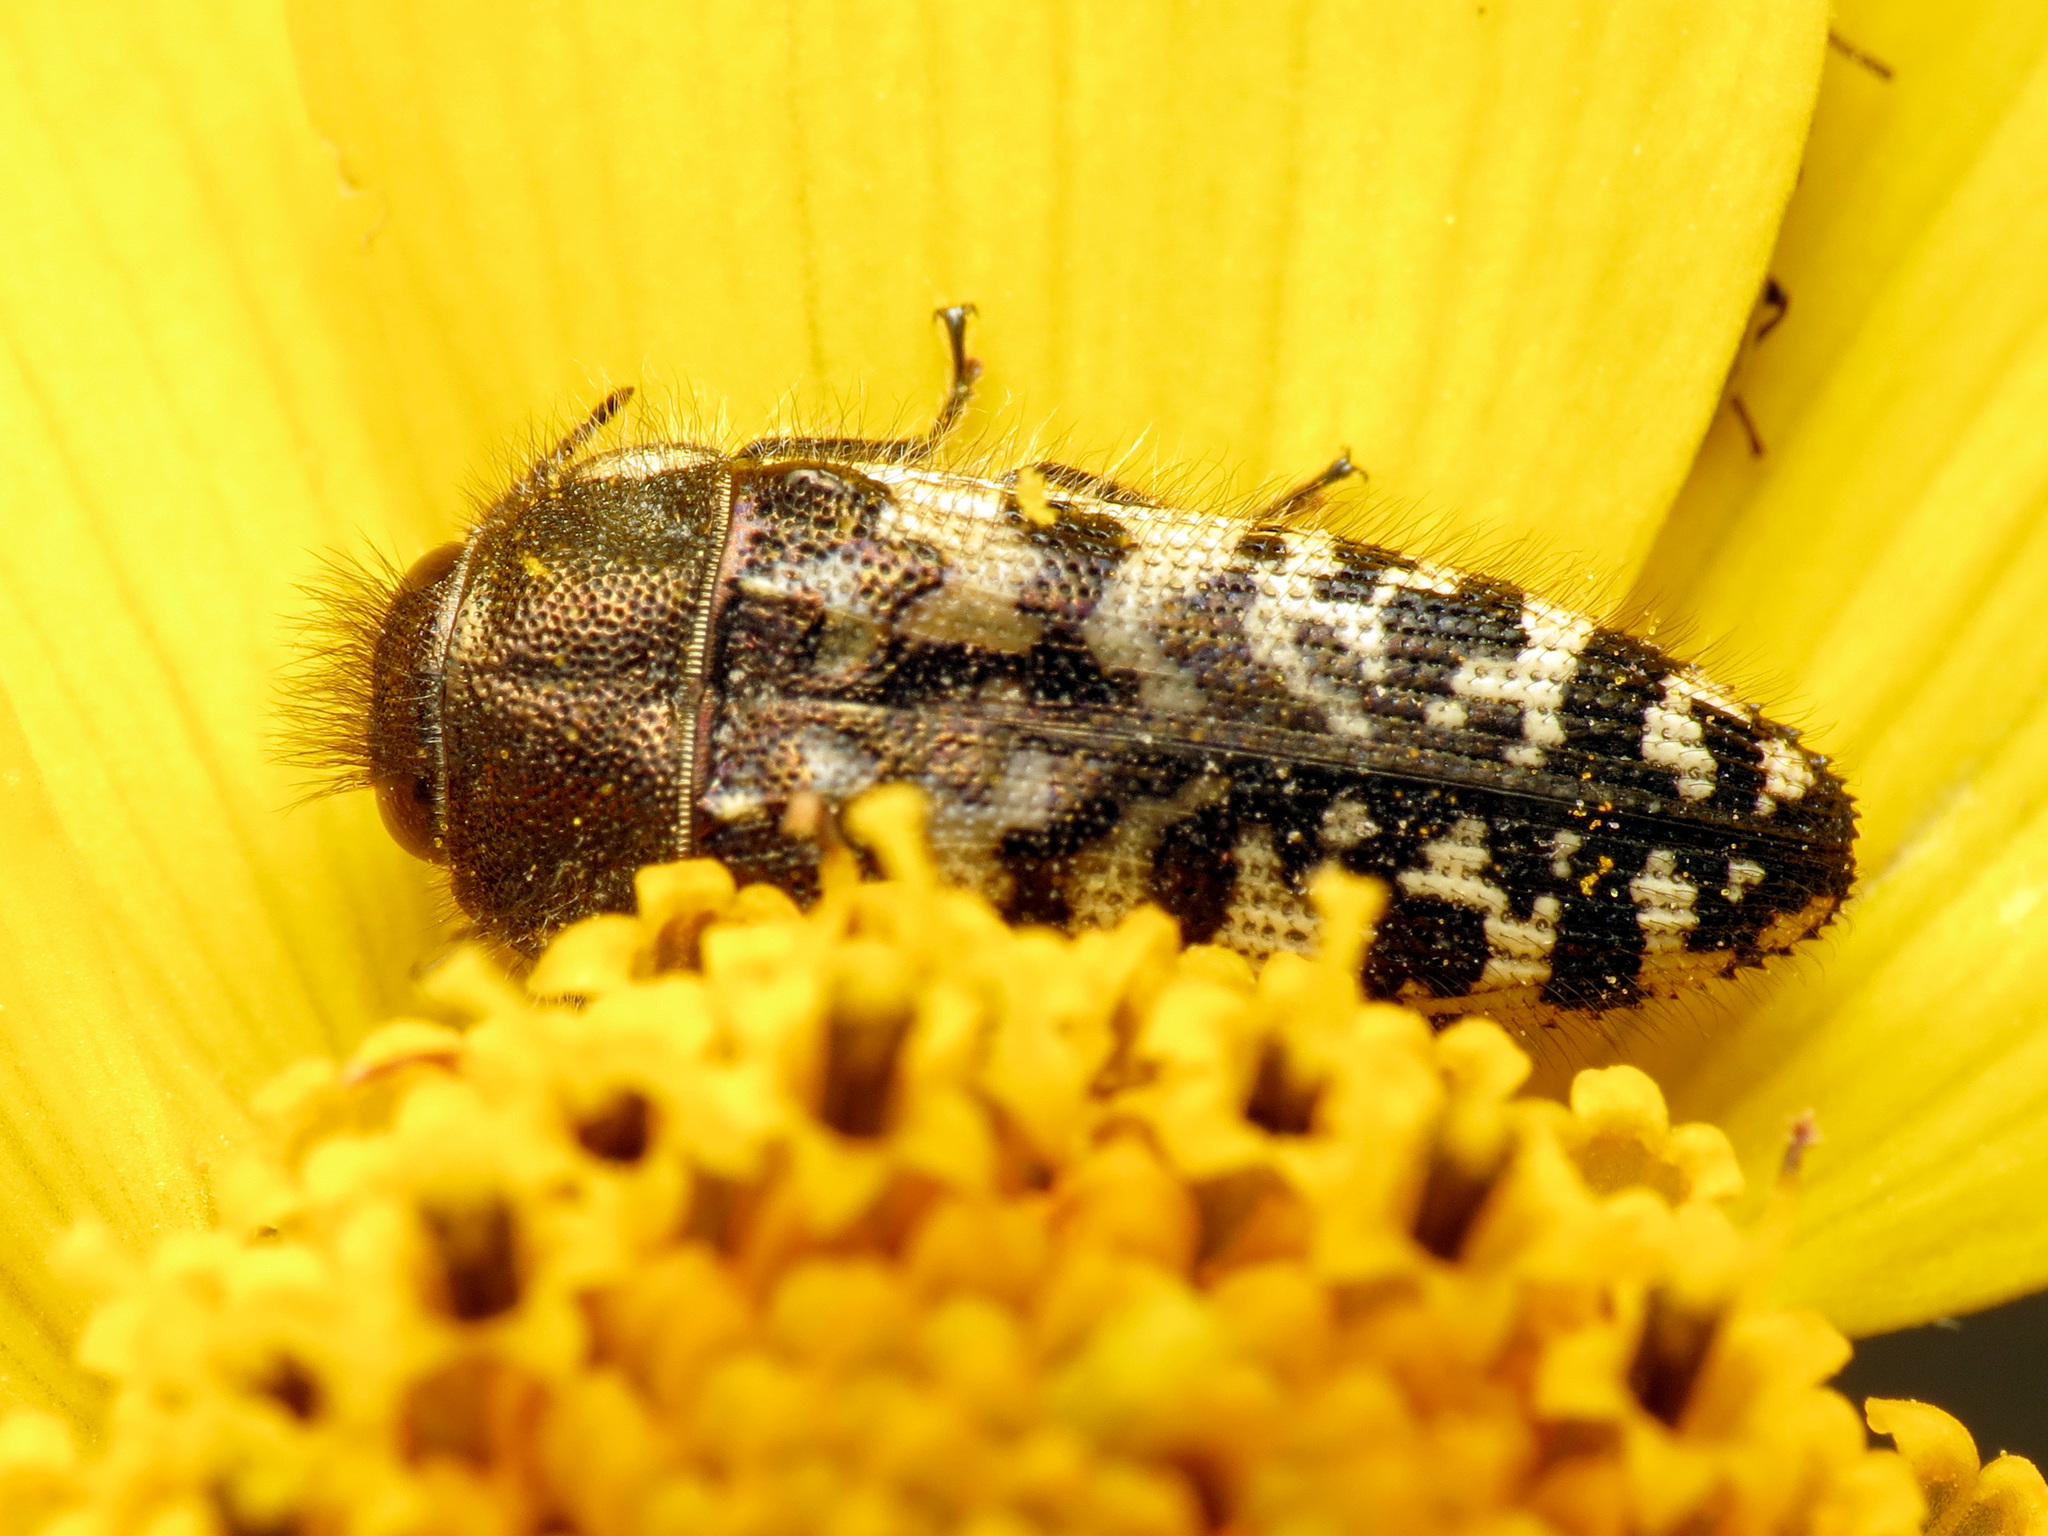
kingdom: Animalia
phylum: Arthropoda
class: Insecta
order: Coleoptera
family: Buprestidae
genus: Acmaeodera
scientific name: Acmaeodera decipiens
